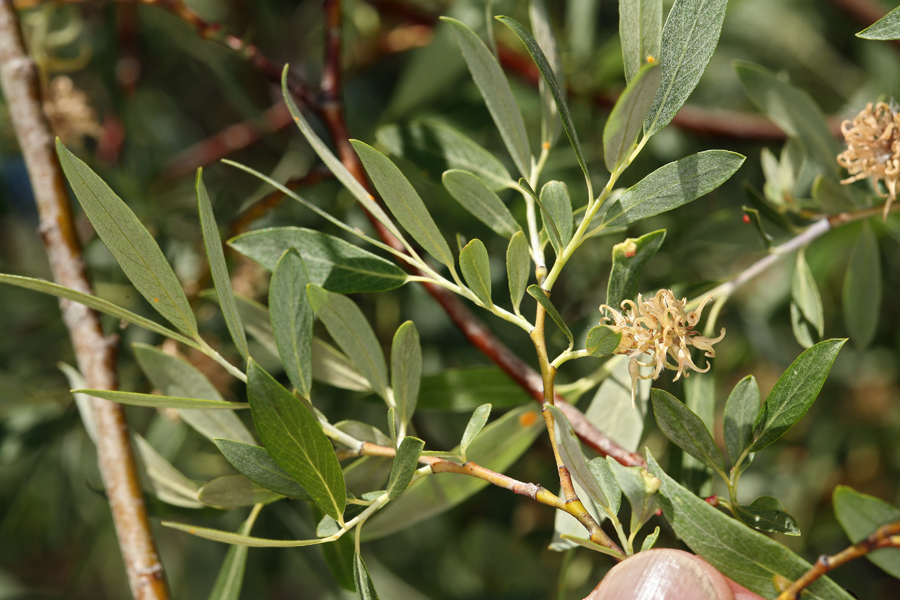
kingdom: Plantae
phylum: Tracheophyta
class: Magnoliopsida
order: Malpighiales
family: Salicaceae
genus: Salix
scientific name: Salix geyeriana
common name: Geyer's willow
